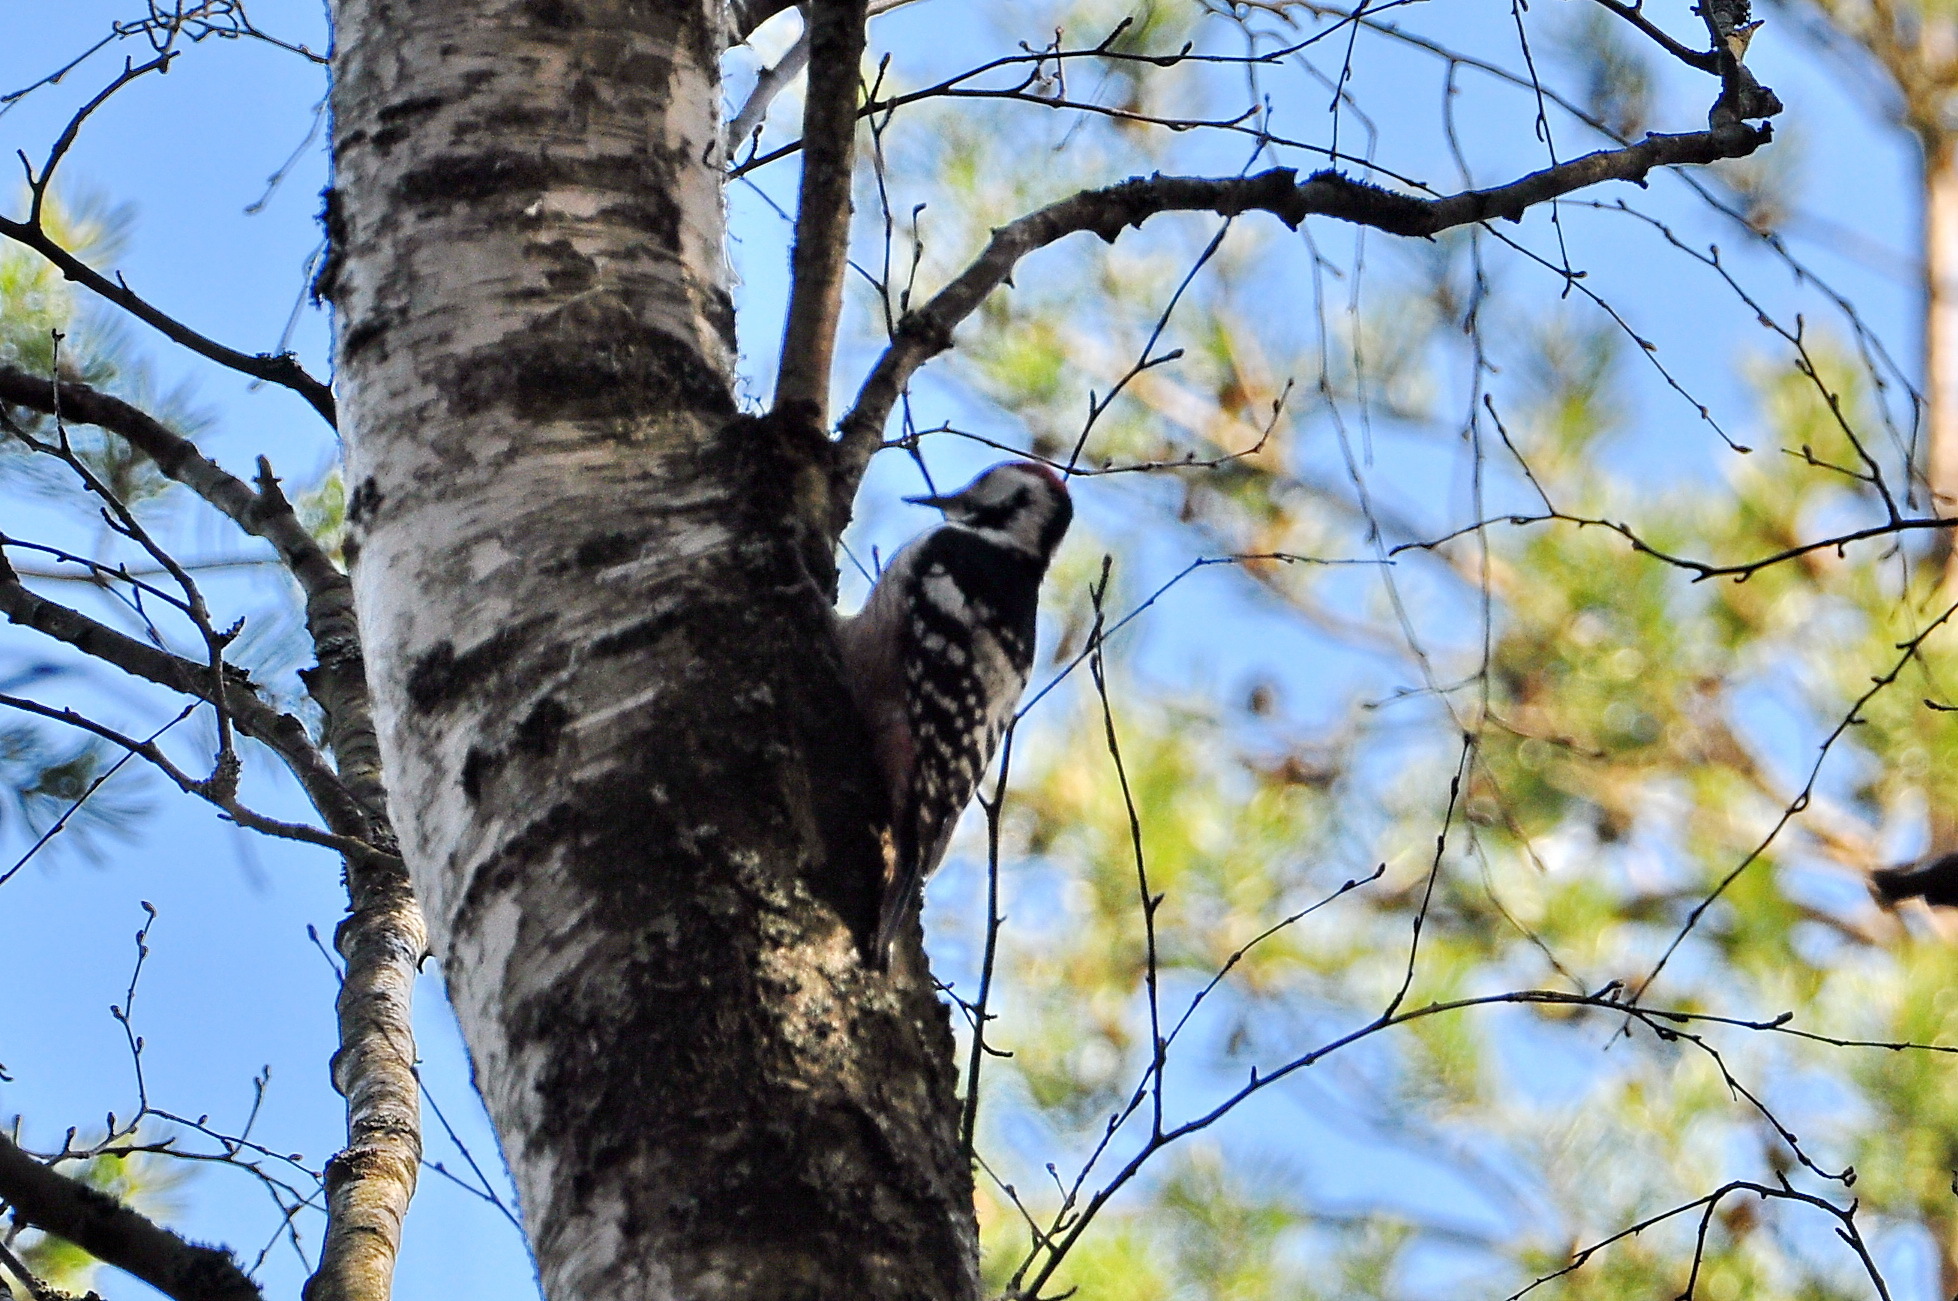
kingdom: Animalia
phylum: Chordata
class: Aves
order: Piciformes
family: Picidae
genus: Dendrocopos
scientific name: Dendrocopos leucotos
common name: White-backed woodpecker
